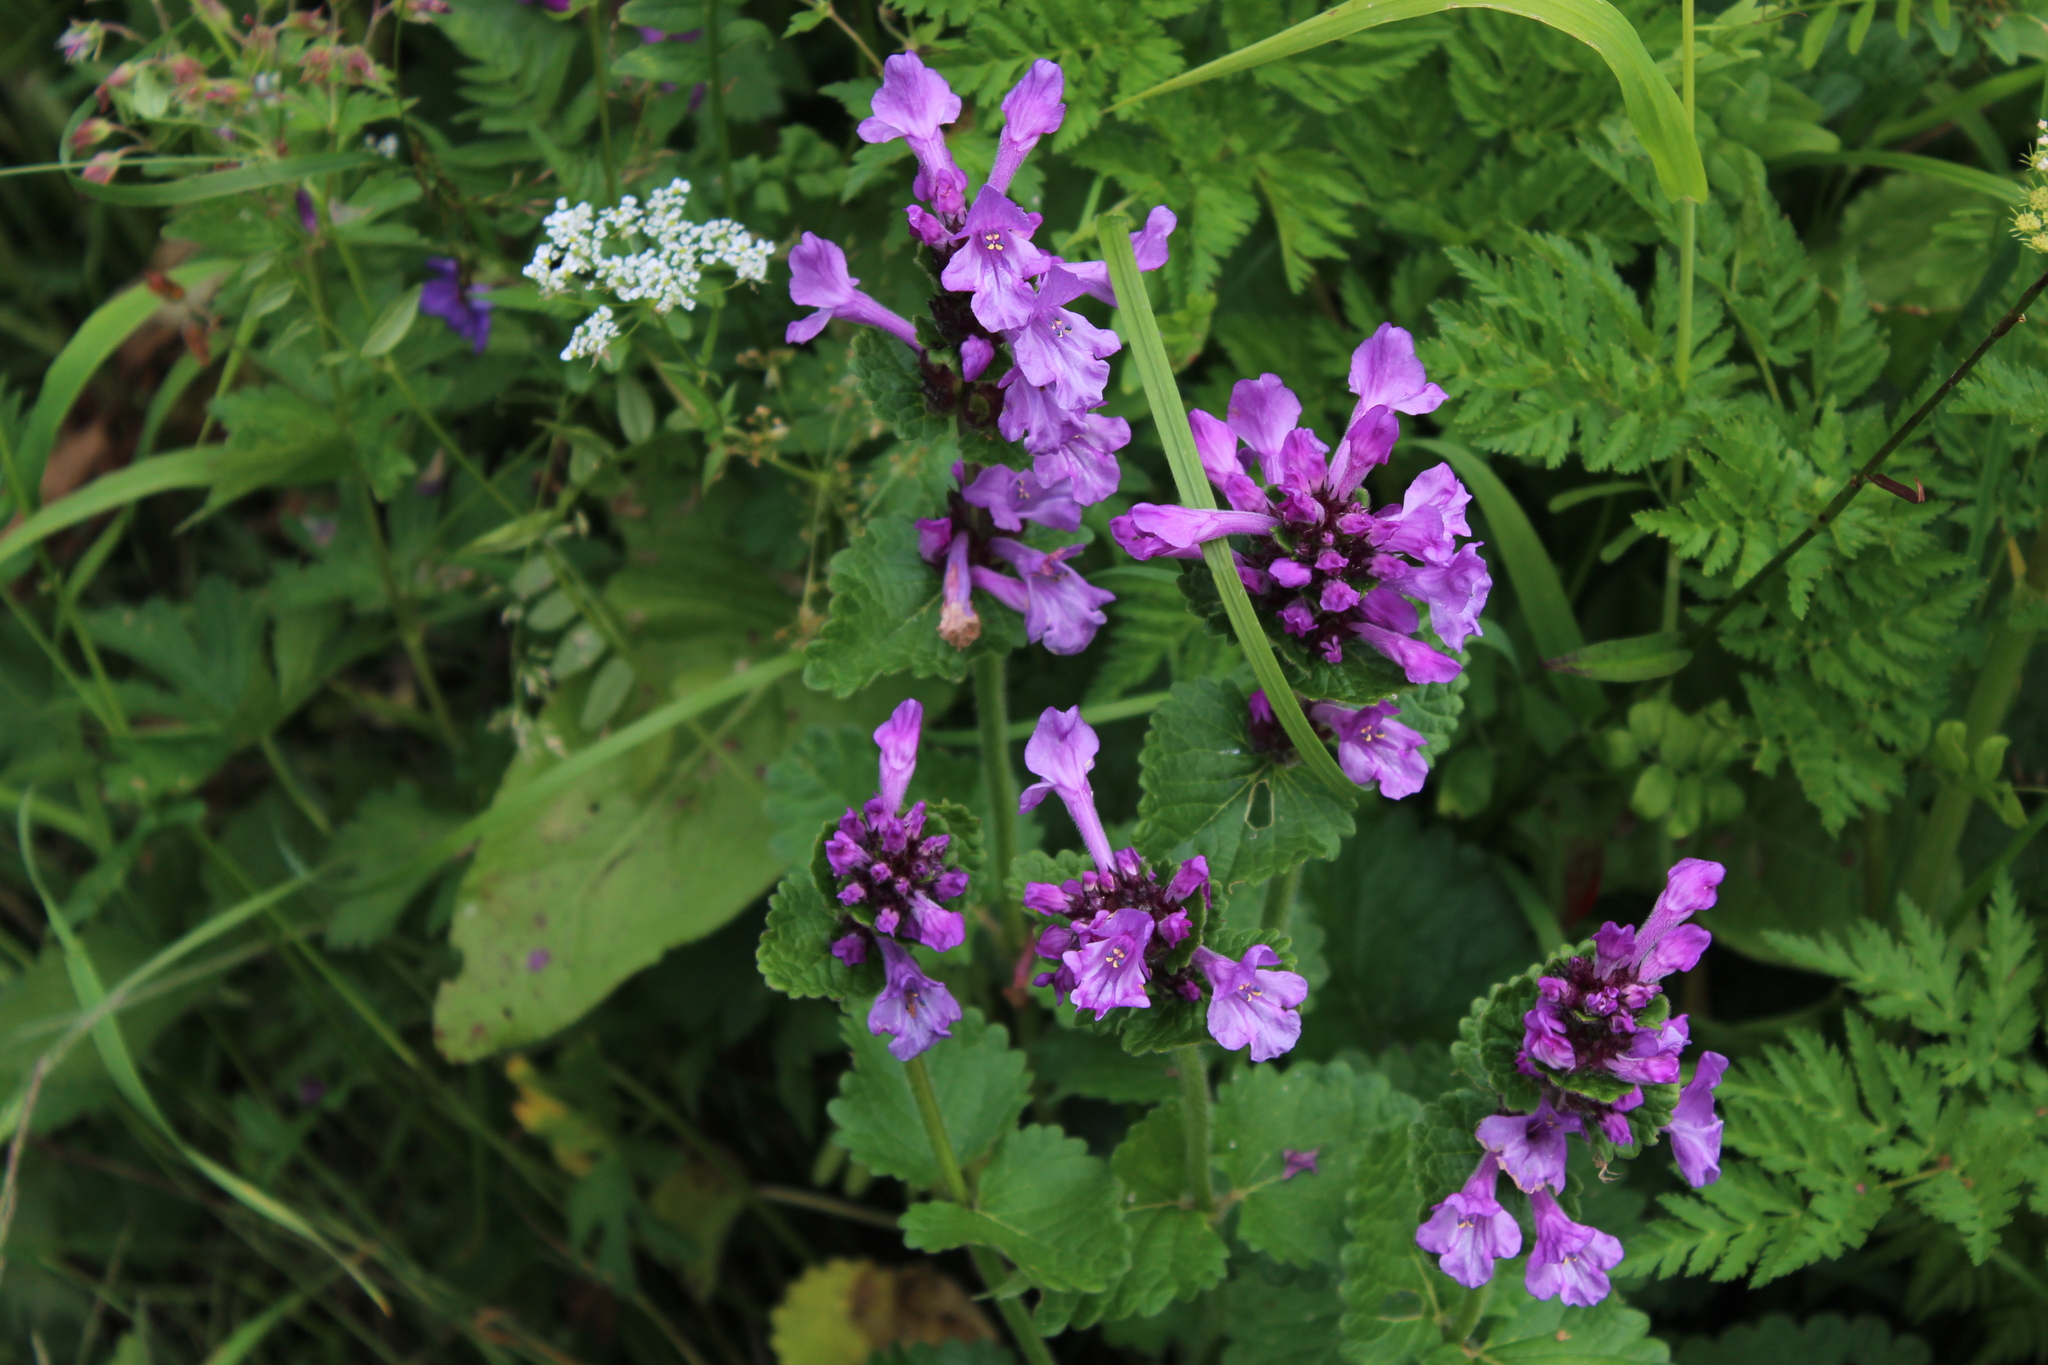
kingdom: Plantae
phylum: Tracheophyta
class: Magnoliopsida
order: Lamiales
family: Lamiaceae
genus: Betonica
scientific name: Betonica macrantha
